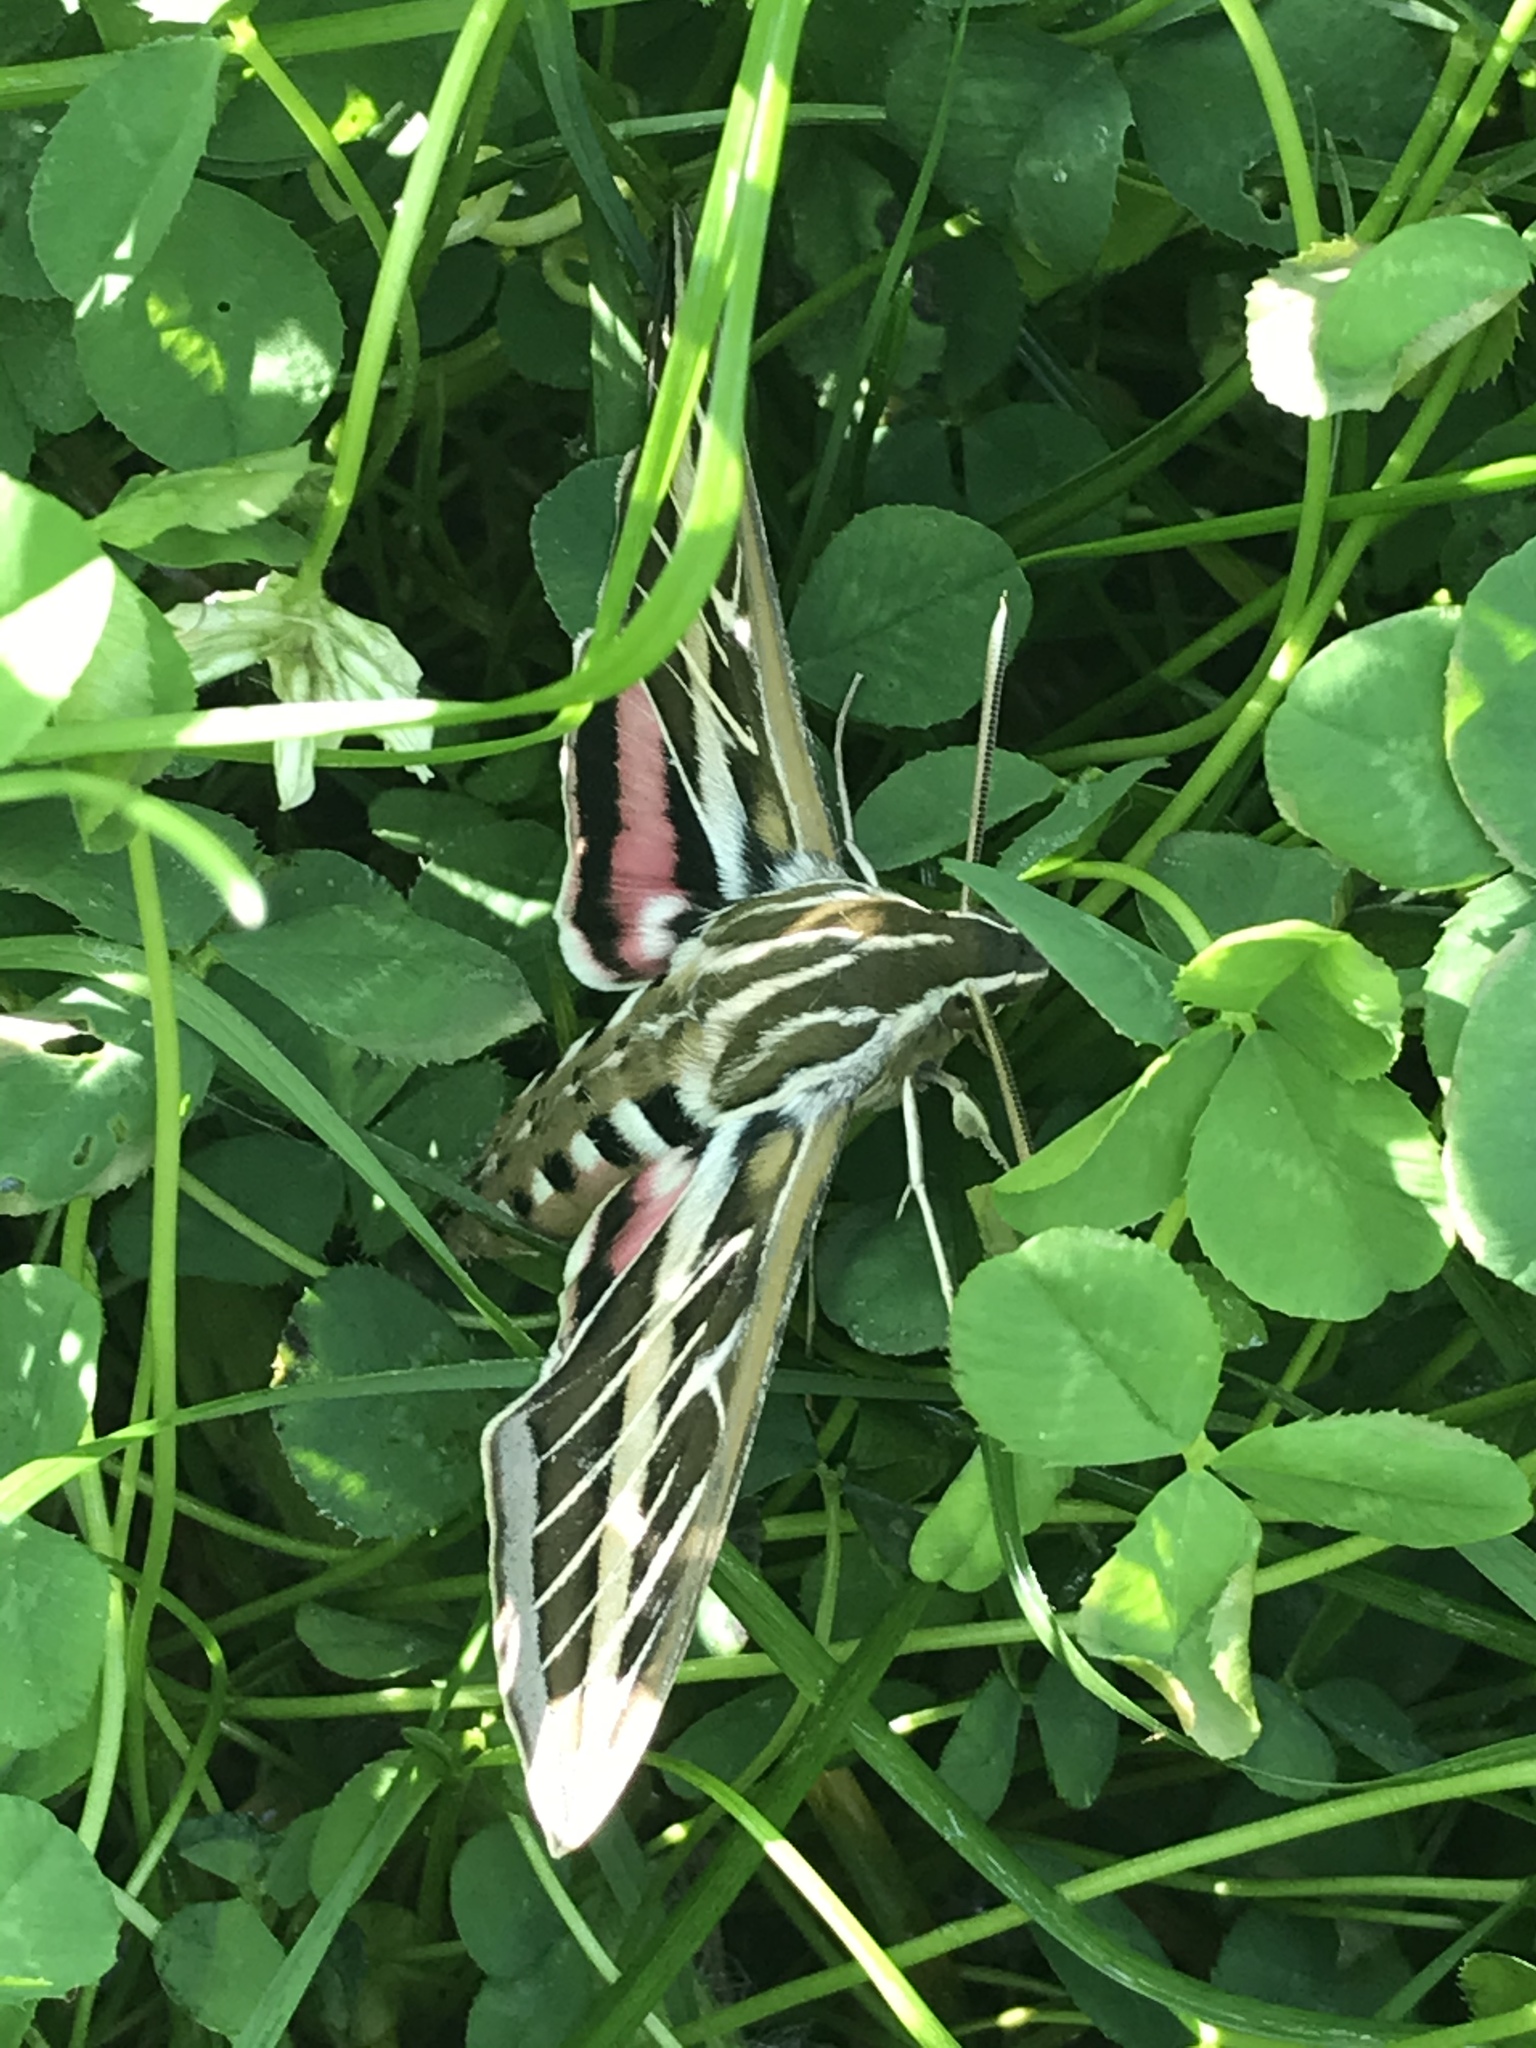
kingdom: Animalia
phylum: Arthropoda
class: Insecta
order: Lepidoptera
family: Sphingidae
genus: Hyles
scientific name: Hyles lineata
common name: White-lined sphinx
